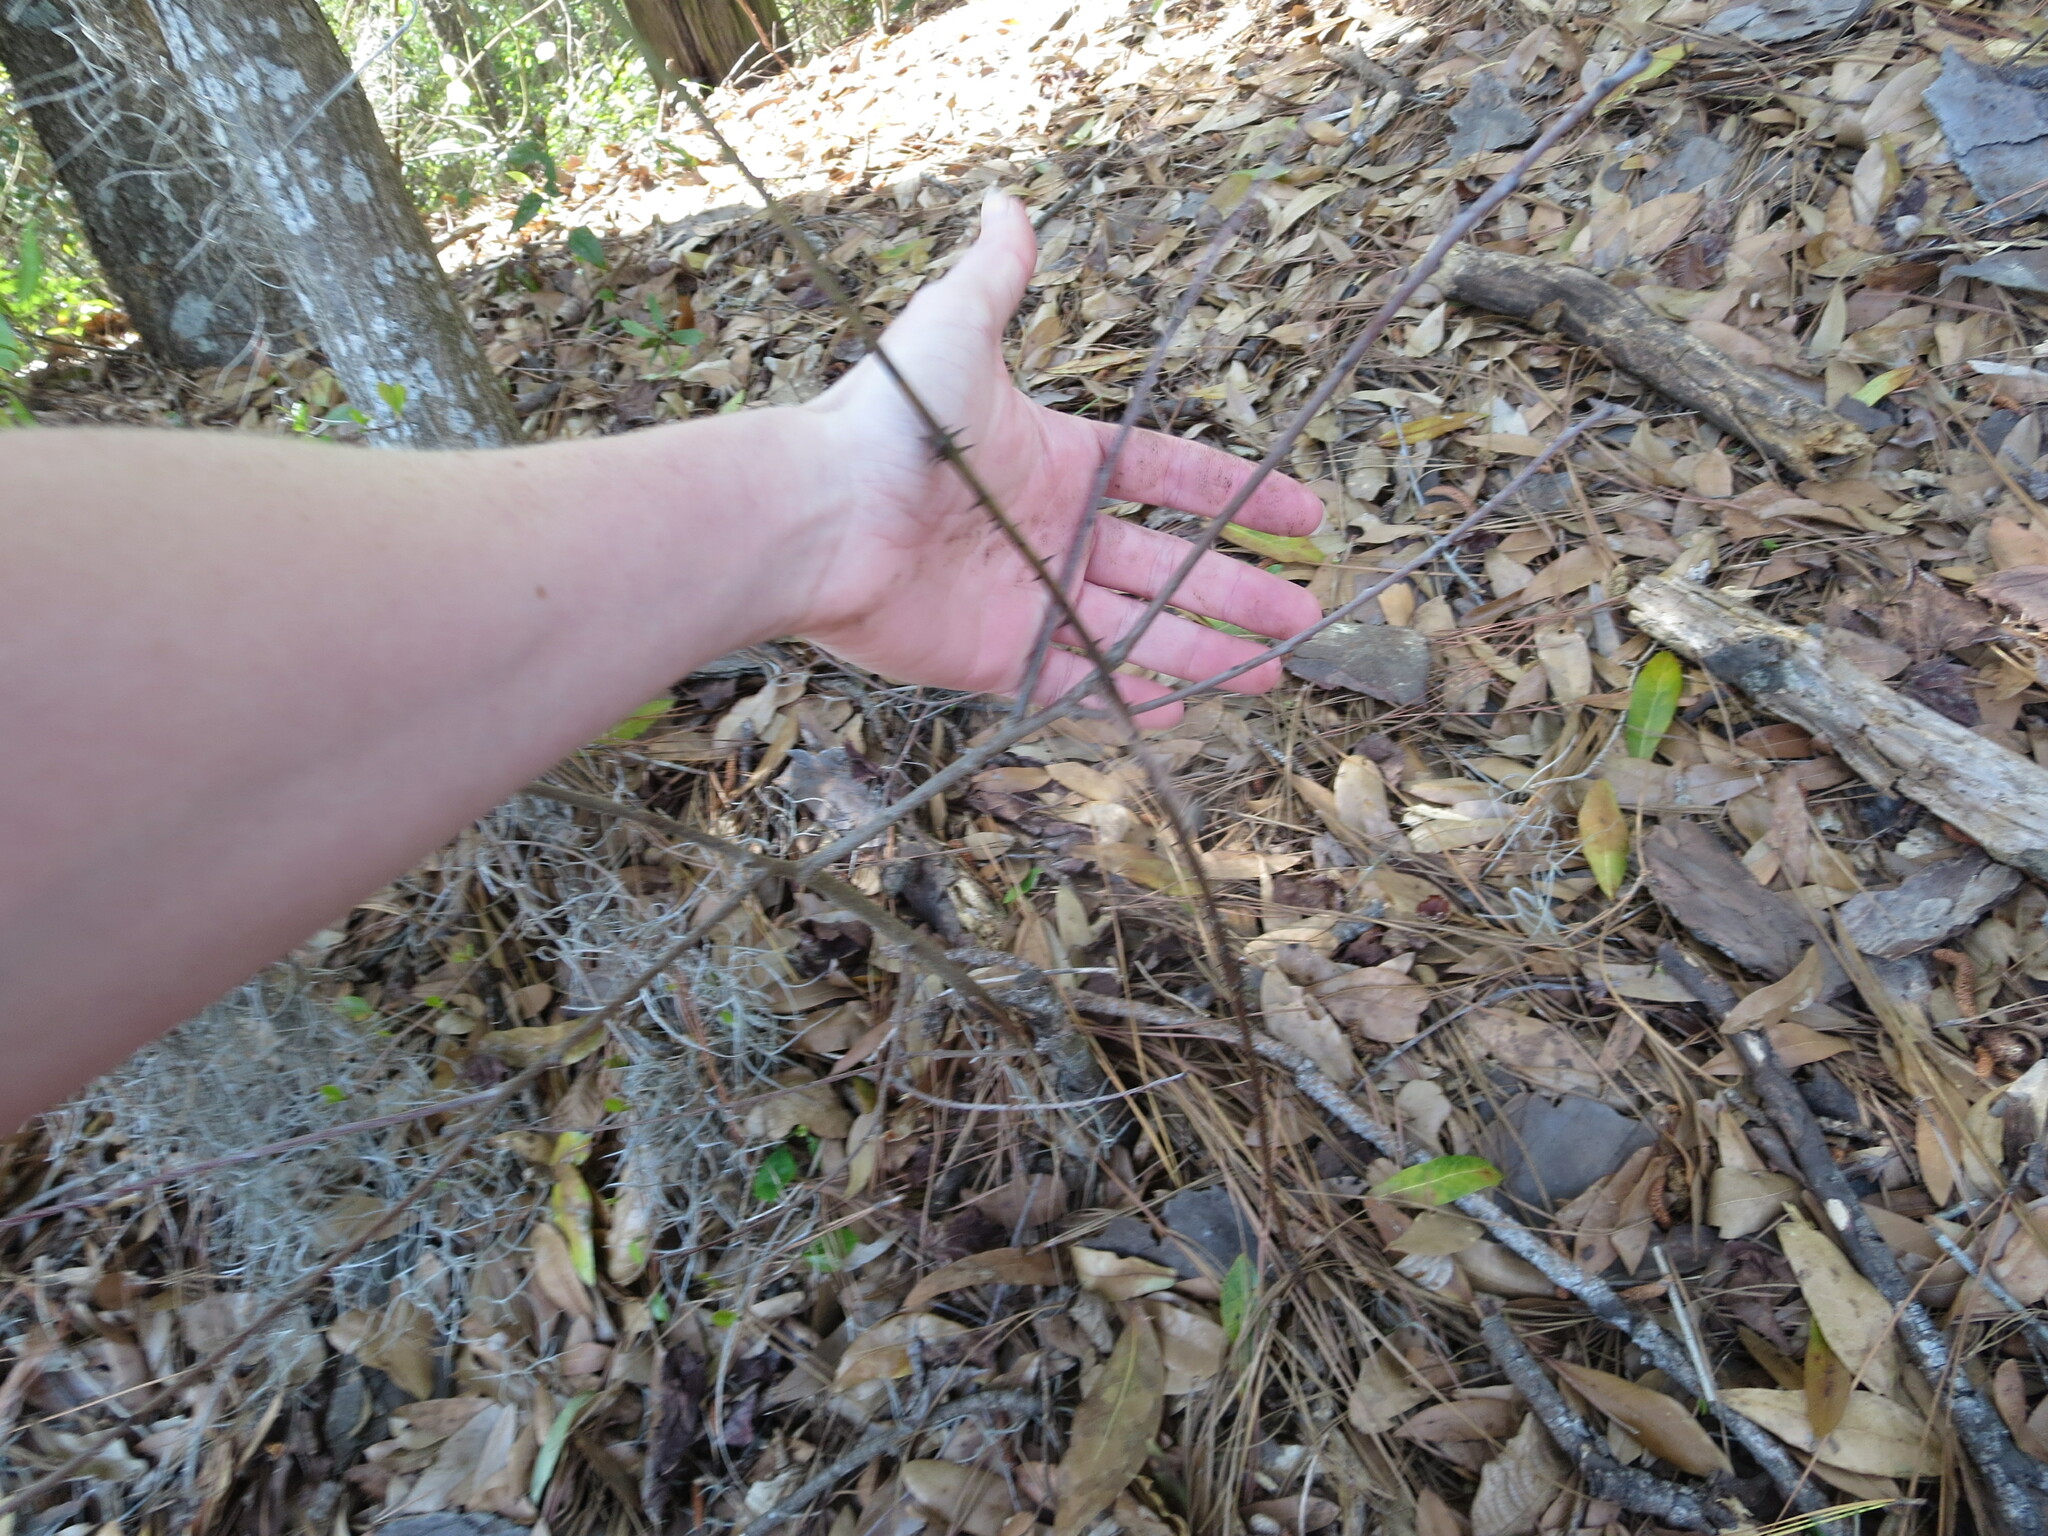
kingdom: Plantae
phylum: Tracheophyta
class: Magnoliopsida
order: Ericales
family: Ebenaceae
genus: Diospyros
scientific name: Diospyros virginiana
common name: Persimmon
